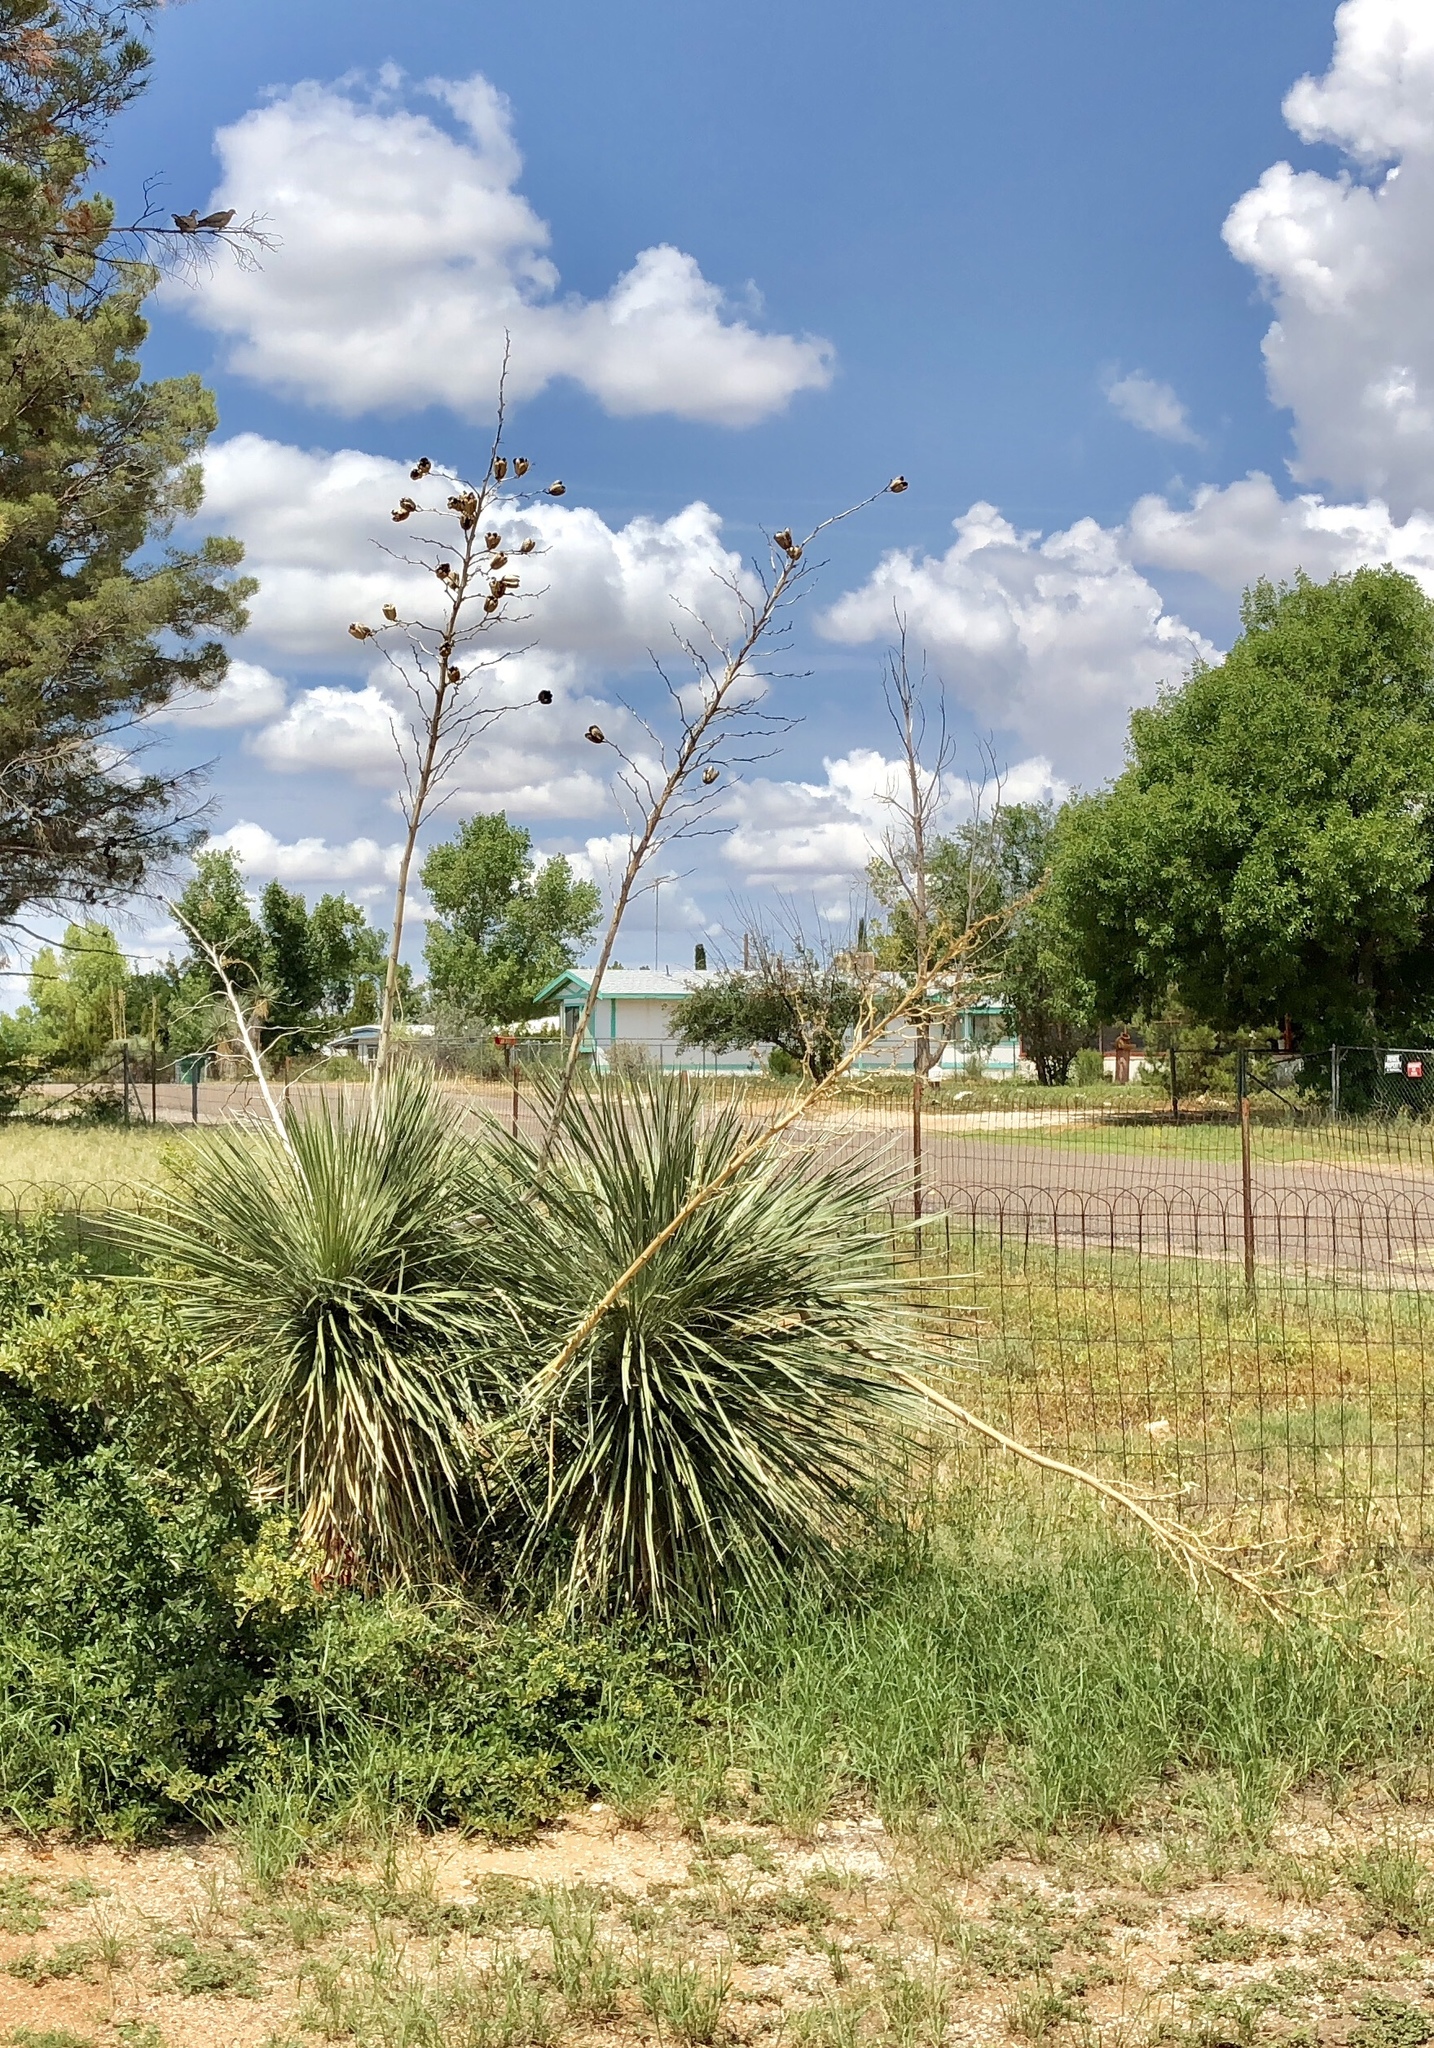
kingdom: Plantae
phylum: Tracheophyta
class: Liliopsida
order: Asparagales
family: Asparagaceae
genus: Yucca
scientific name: Yucca elata
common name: Palmella
